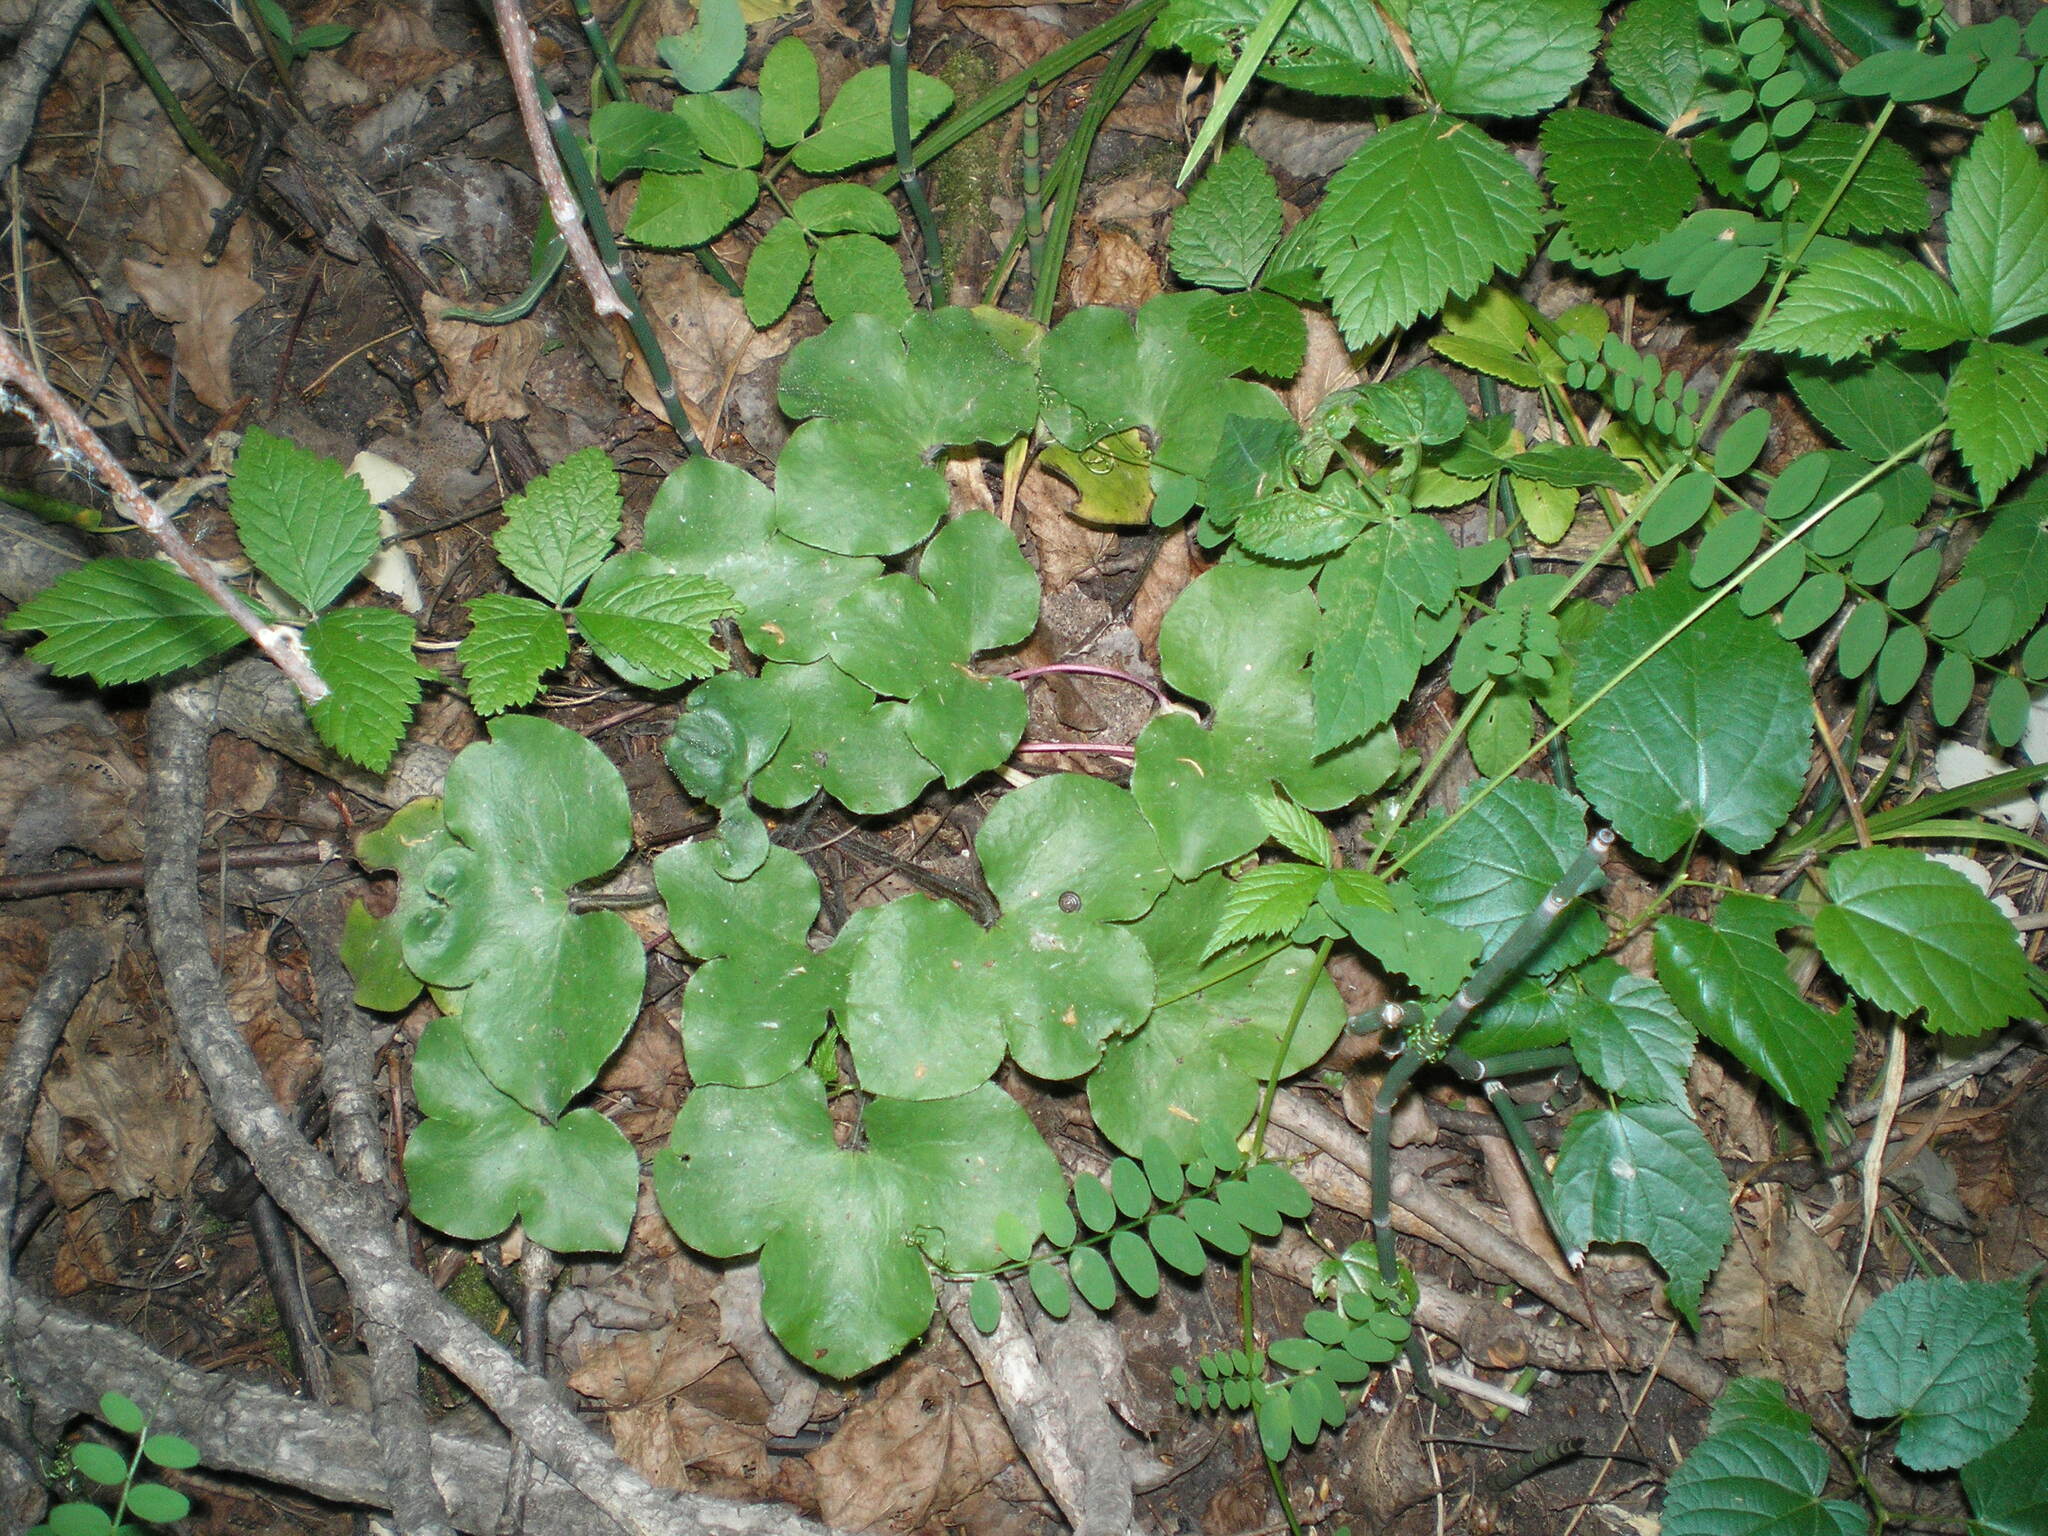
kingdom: Plantae
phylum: Tracheophyta
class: Magnoliopsida
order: Ranunculales
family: Ranunculaceae
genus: Hepatica
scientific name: Hepatica nobilis
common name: Liverleaf
